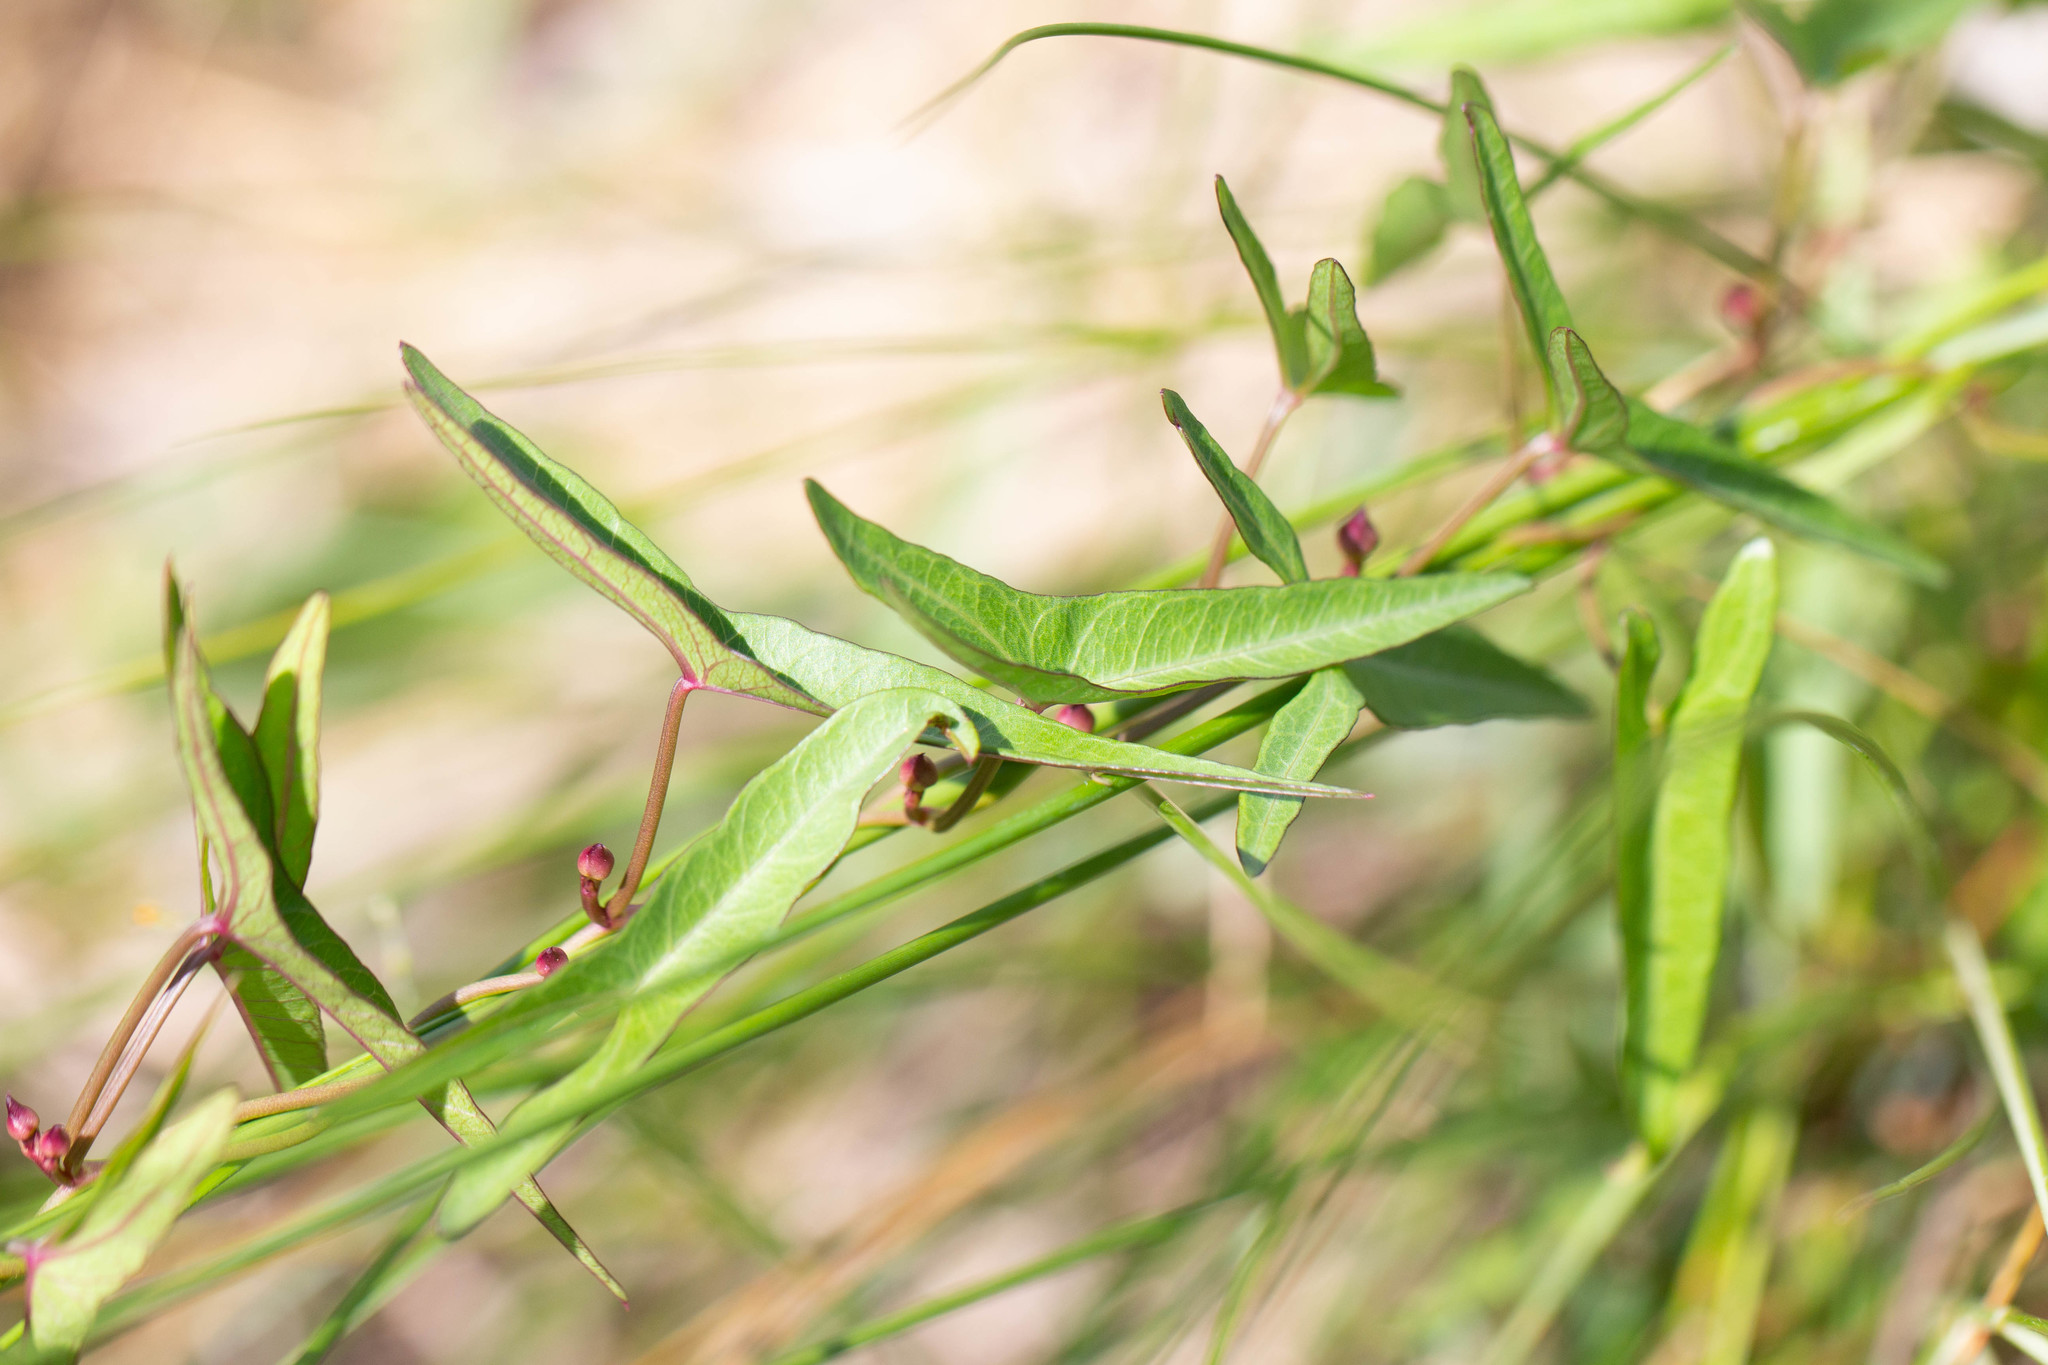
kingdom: Plantae
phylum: Tracheophyta
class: Magnoliopsida
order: Solanales
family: Convolvulaceae
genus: Ipomoea
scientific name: Ipomoea sagittata
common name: Saltmarsh morning glory
